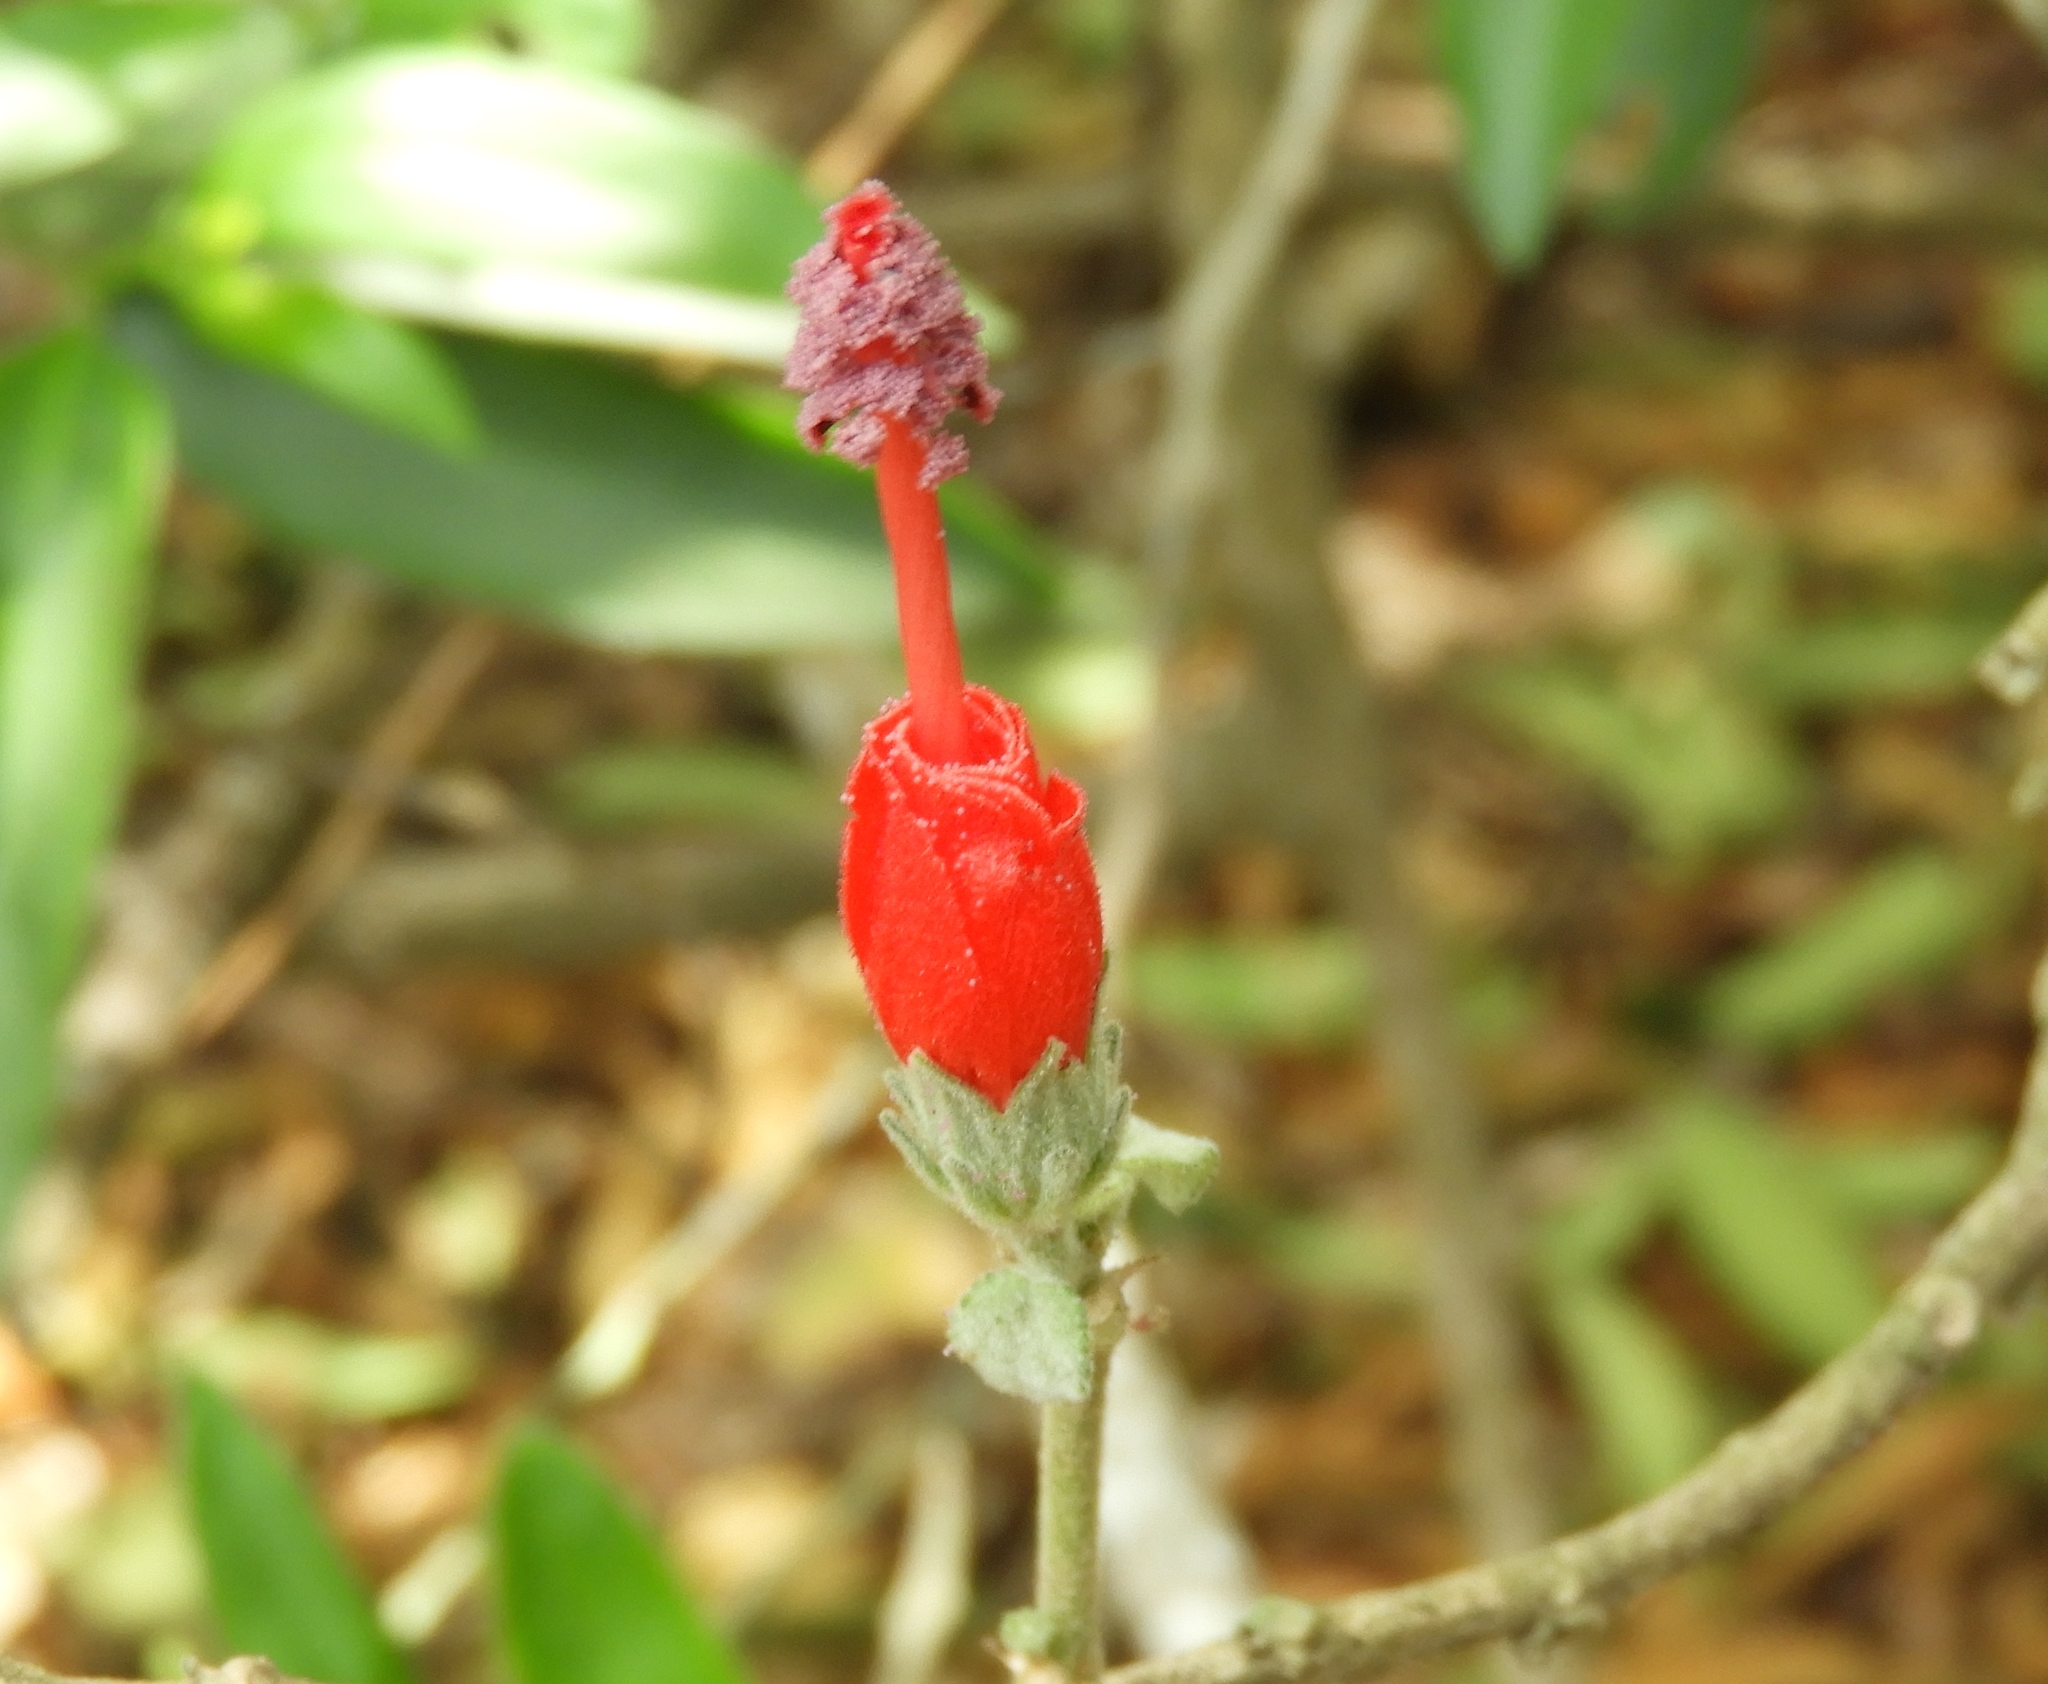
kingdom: Plantae
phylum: Tracheophyta
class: Magnoliopsida
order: Malvales
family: Malvaceae
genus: Malvaviscus
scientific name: Malvaviscus arboreus
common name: Wax mallow
